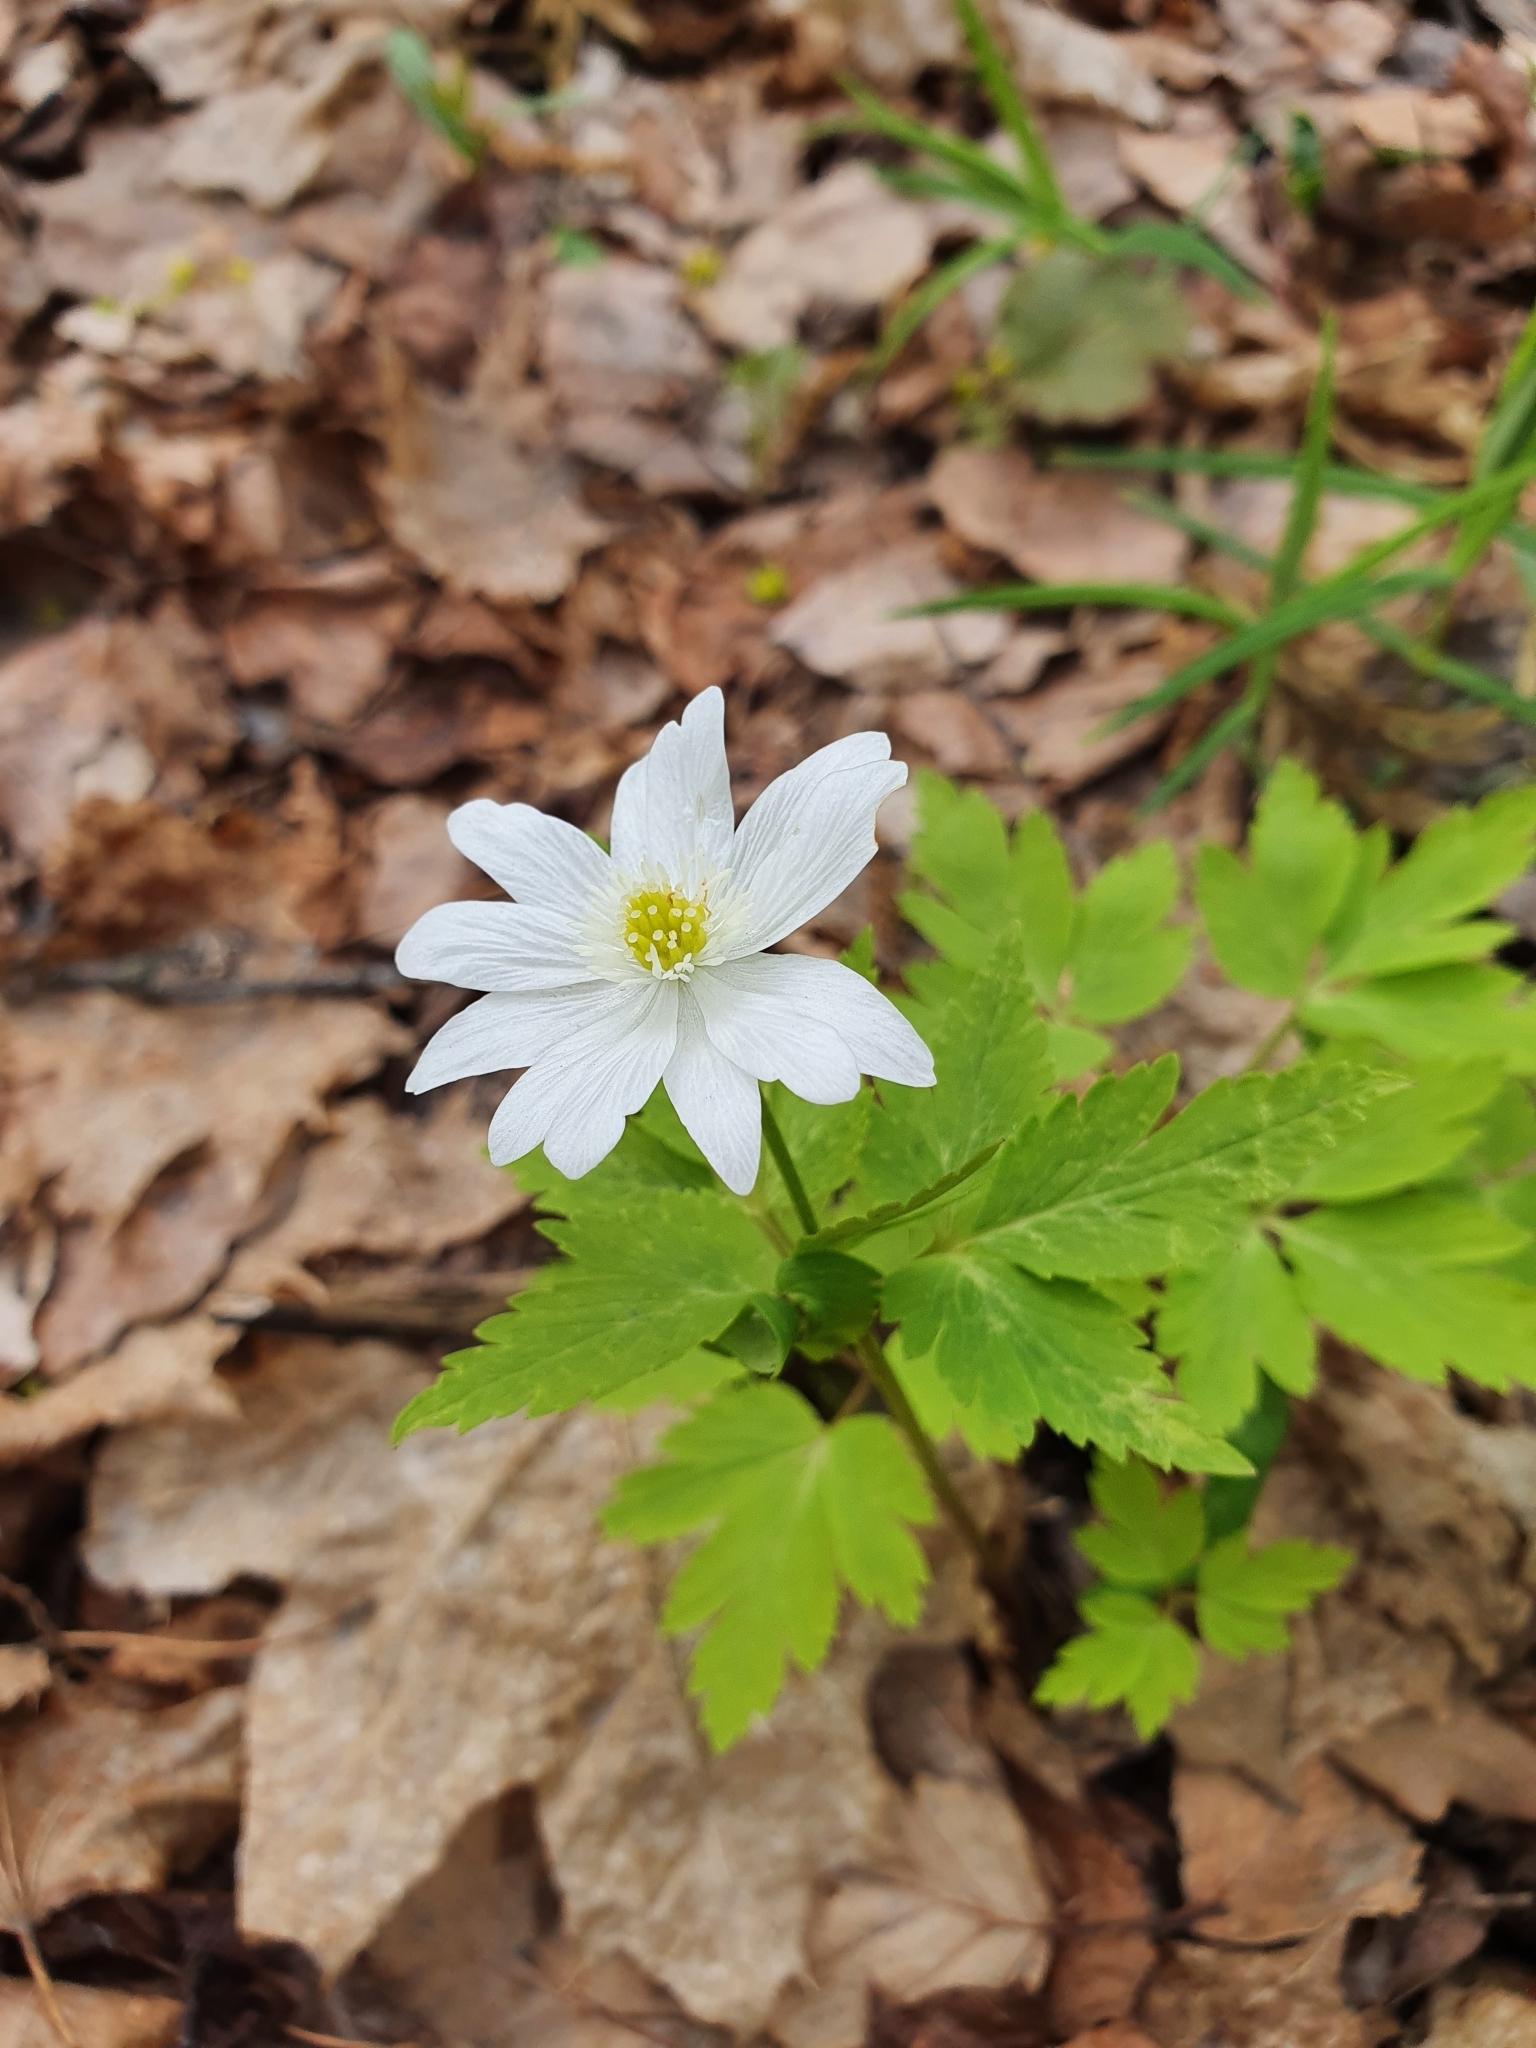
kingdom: Plantae
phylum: Tracheophyta
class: Magnoliopsida
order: Ranunculales
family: Ranunculaceae
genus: Anemone
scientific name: Anemone altaica
